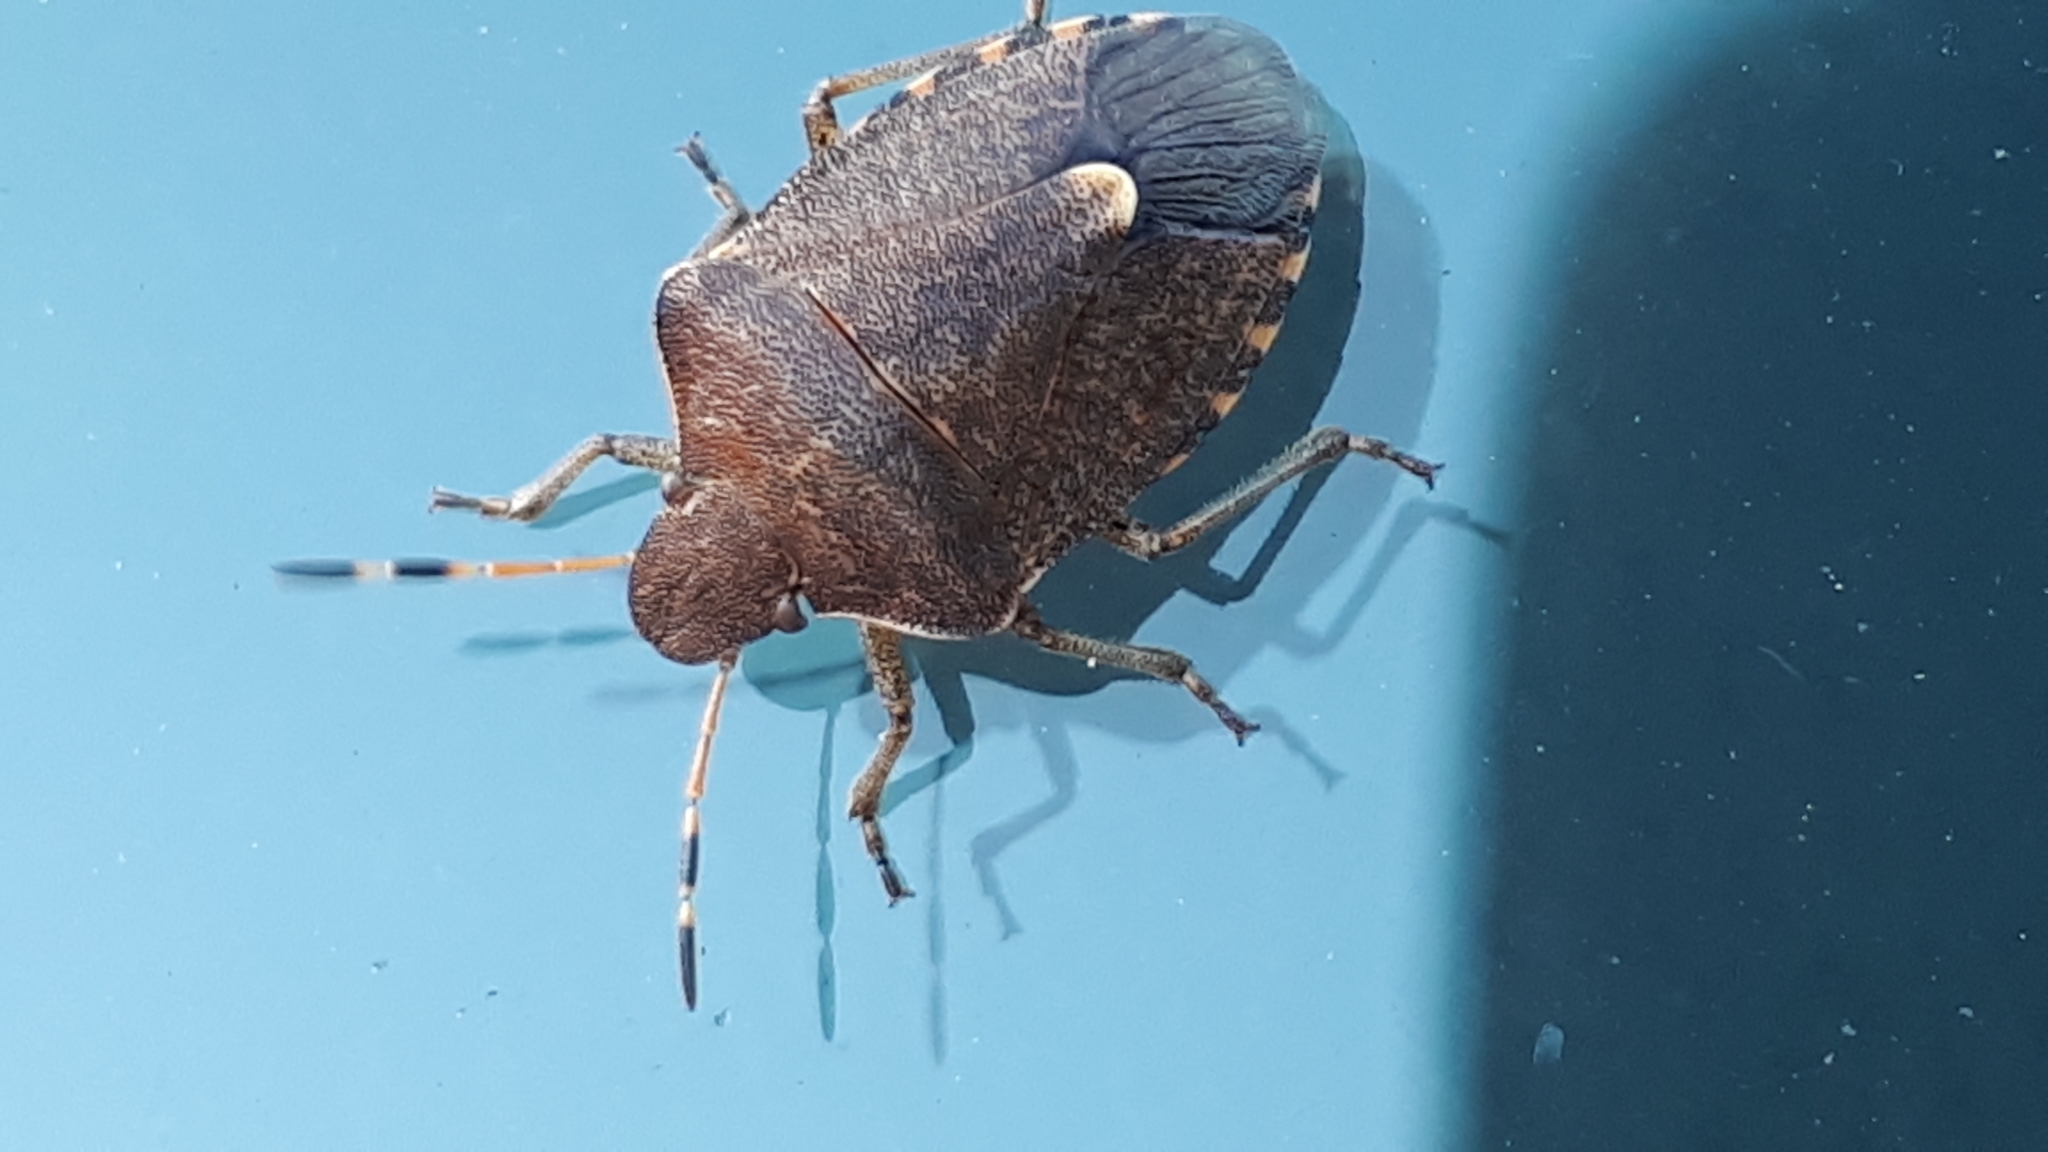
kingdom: Animalia
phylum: Arthropoda
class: Insecta
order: Hemiptera
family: Pentatomidae
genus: Holcostethus
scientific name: Holcostethus strictus
